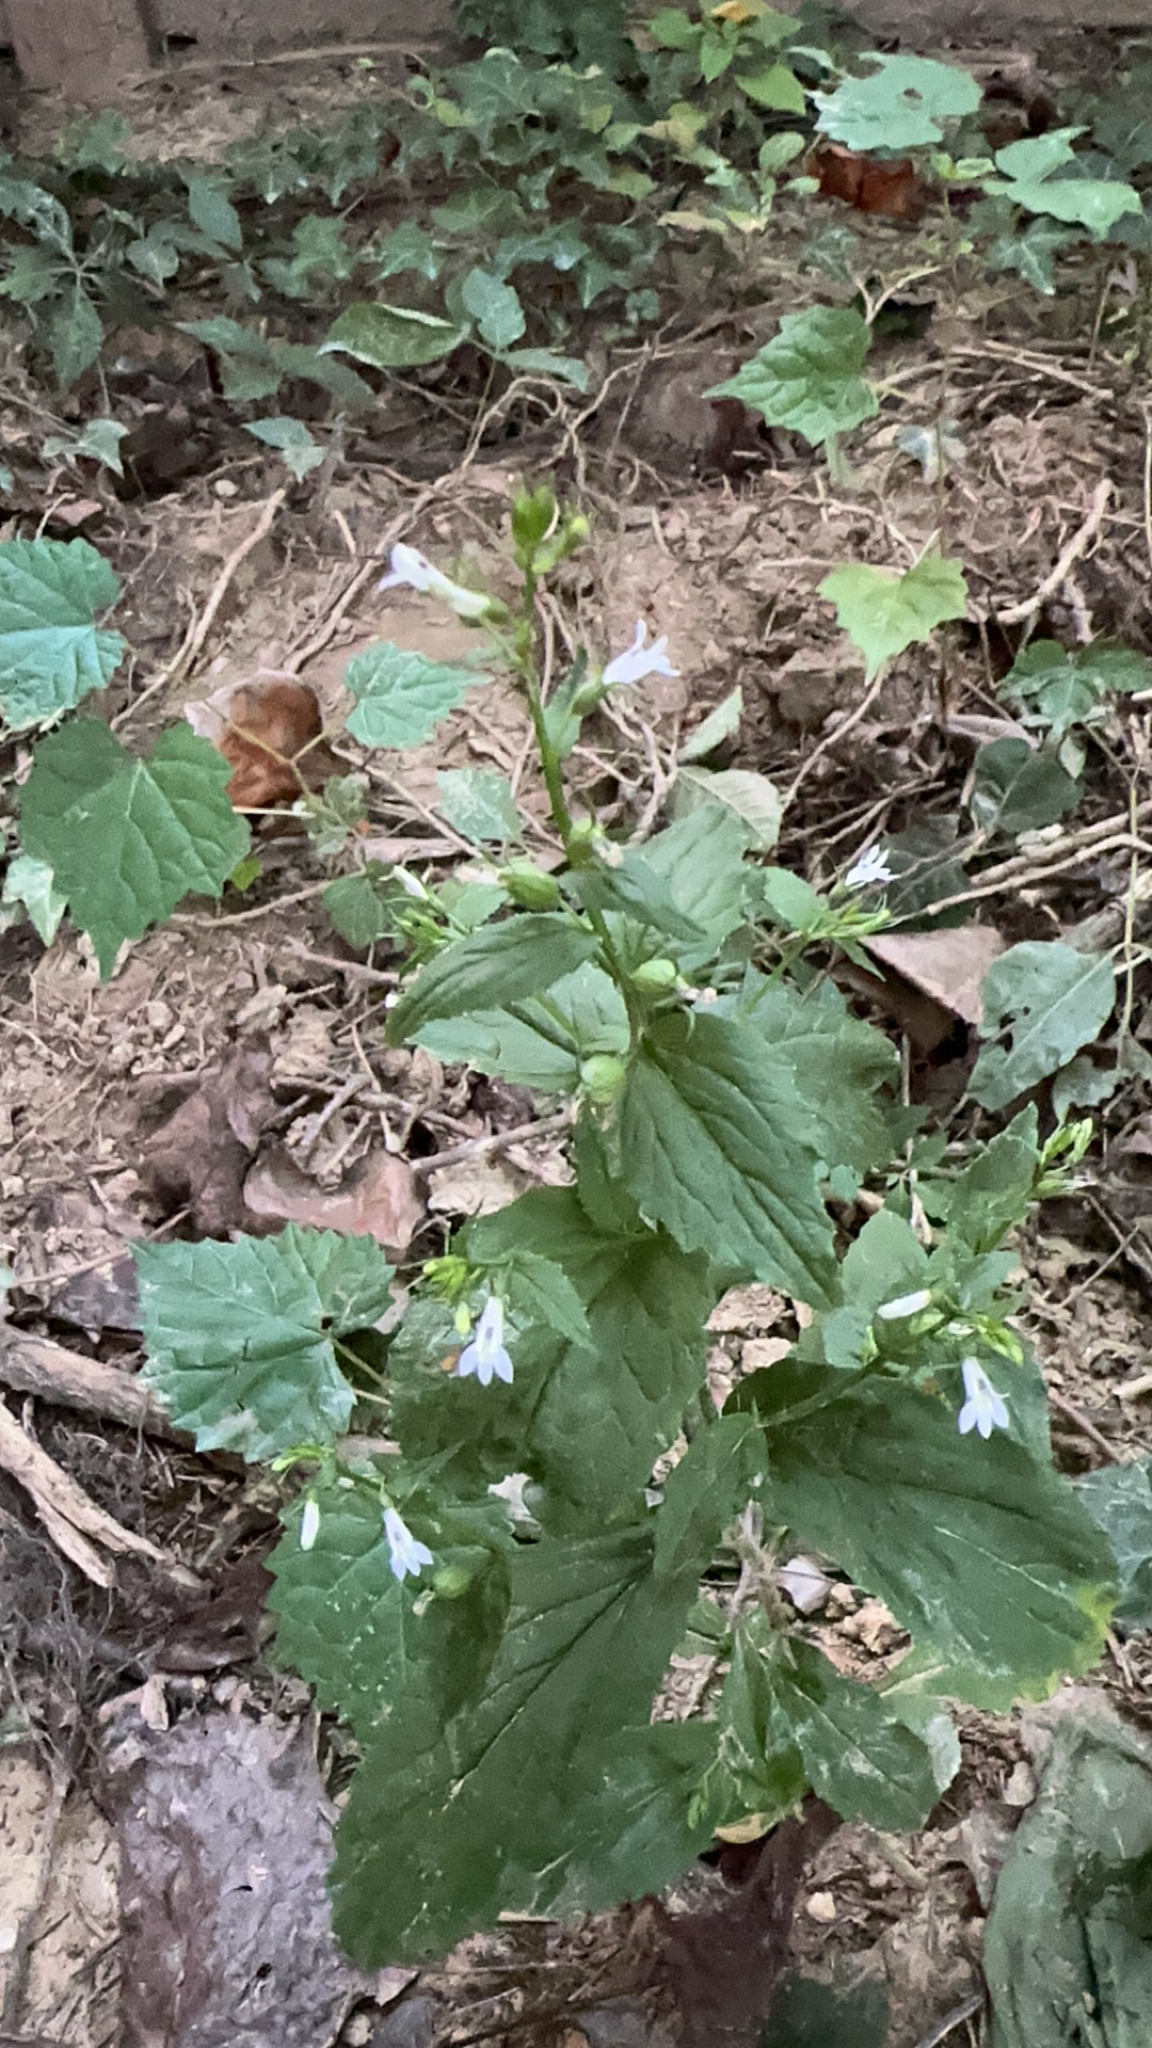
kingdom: Plantae
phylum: Tracheophyta
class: Magnoliopsida
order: Asterales
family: Campanulaceae
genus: Lobelia
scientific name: Lobelia inflata
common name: Indian tobacco
